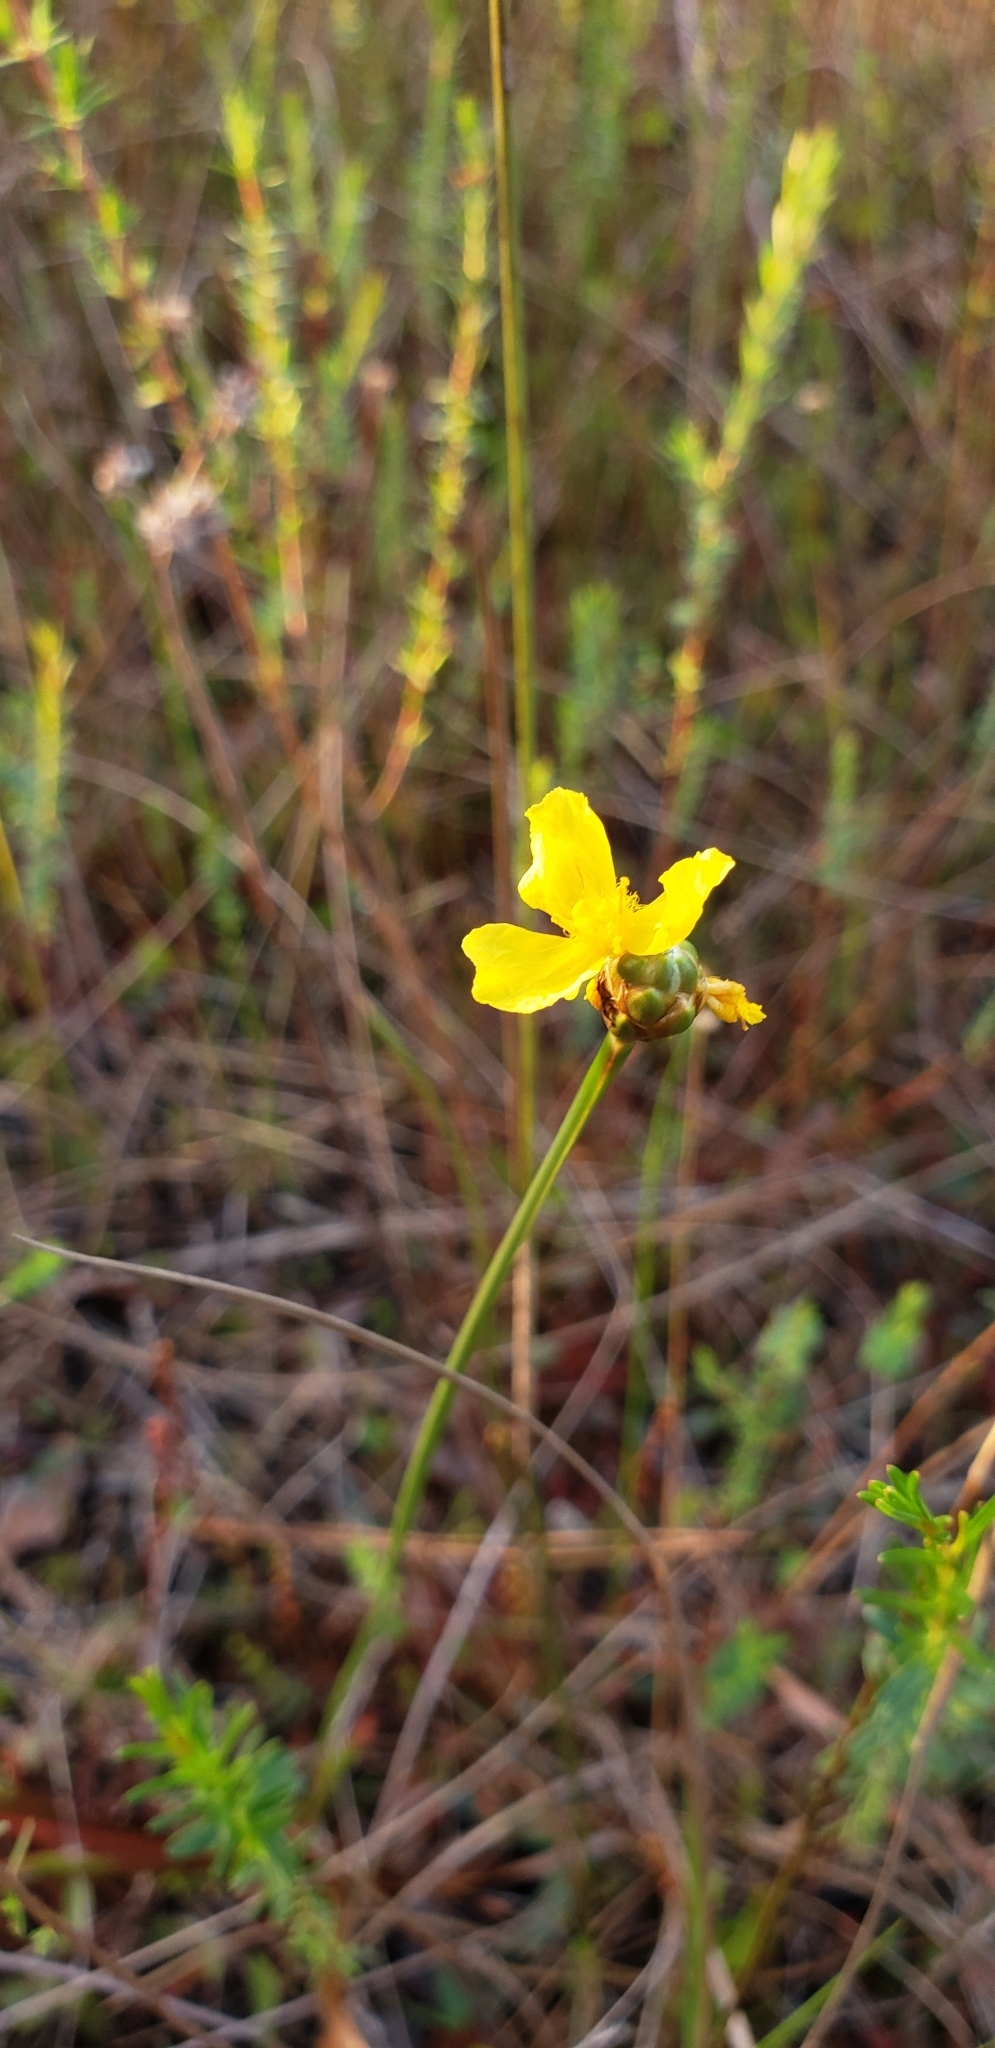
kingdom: Plantae
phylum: Tracheophyta
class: Liliopsida
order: Poales
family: Xyridaceae
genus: Xyris
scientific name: Xyris elliottii
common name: Elliot's yelloweyed grass
